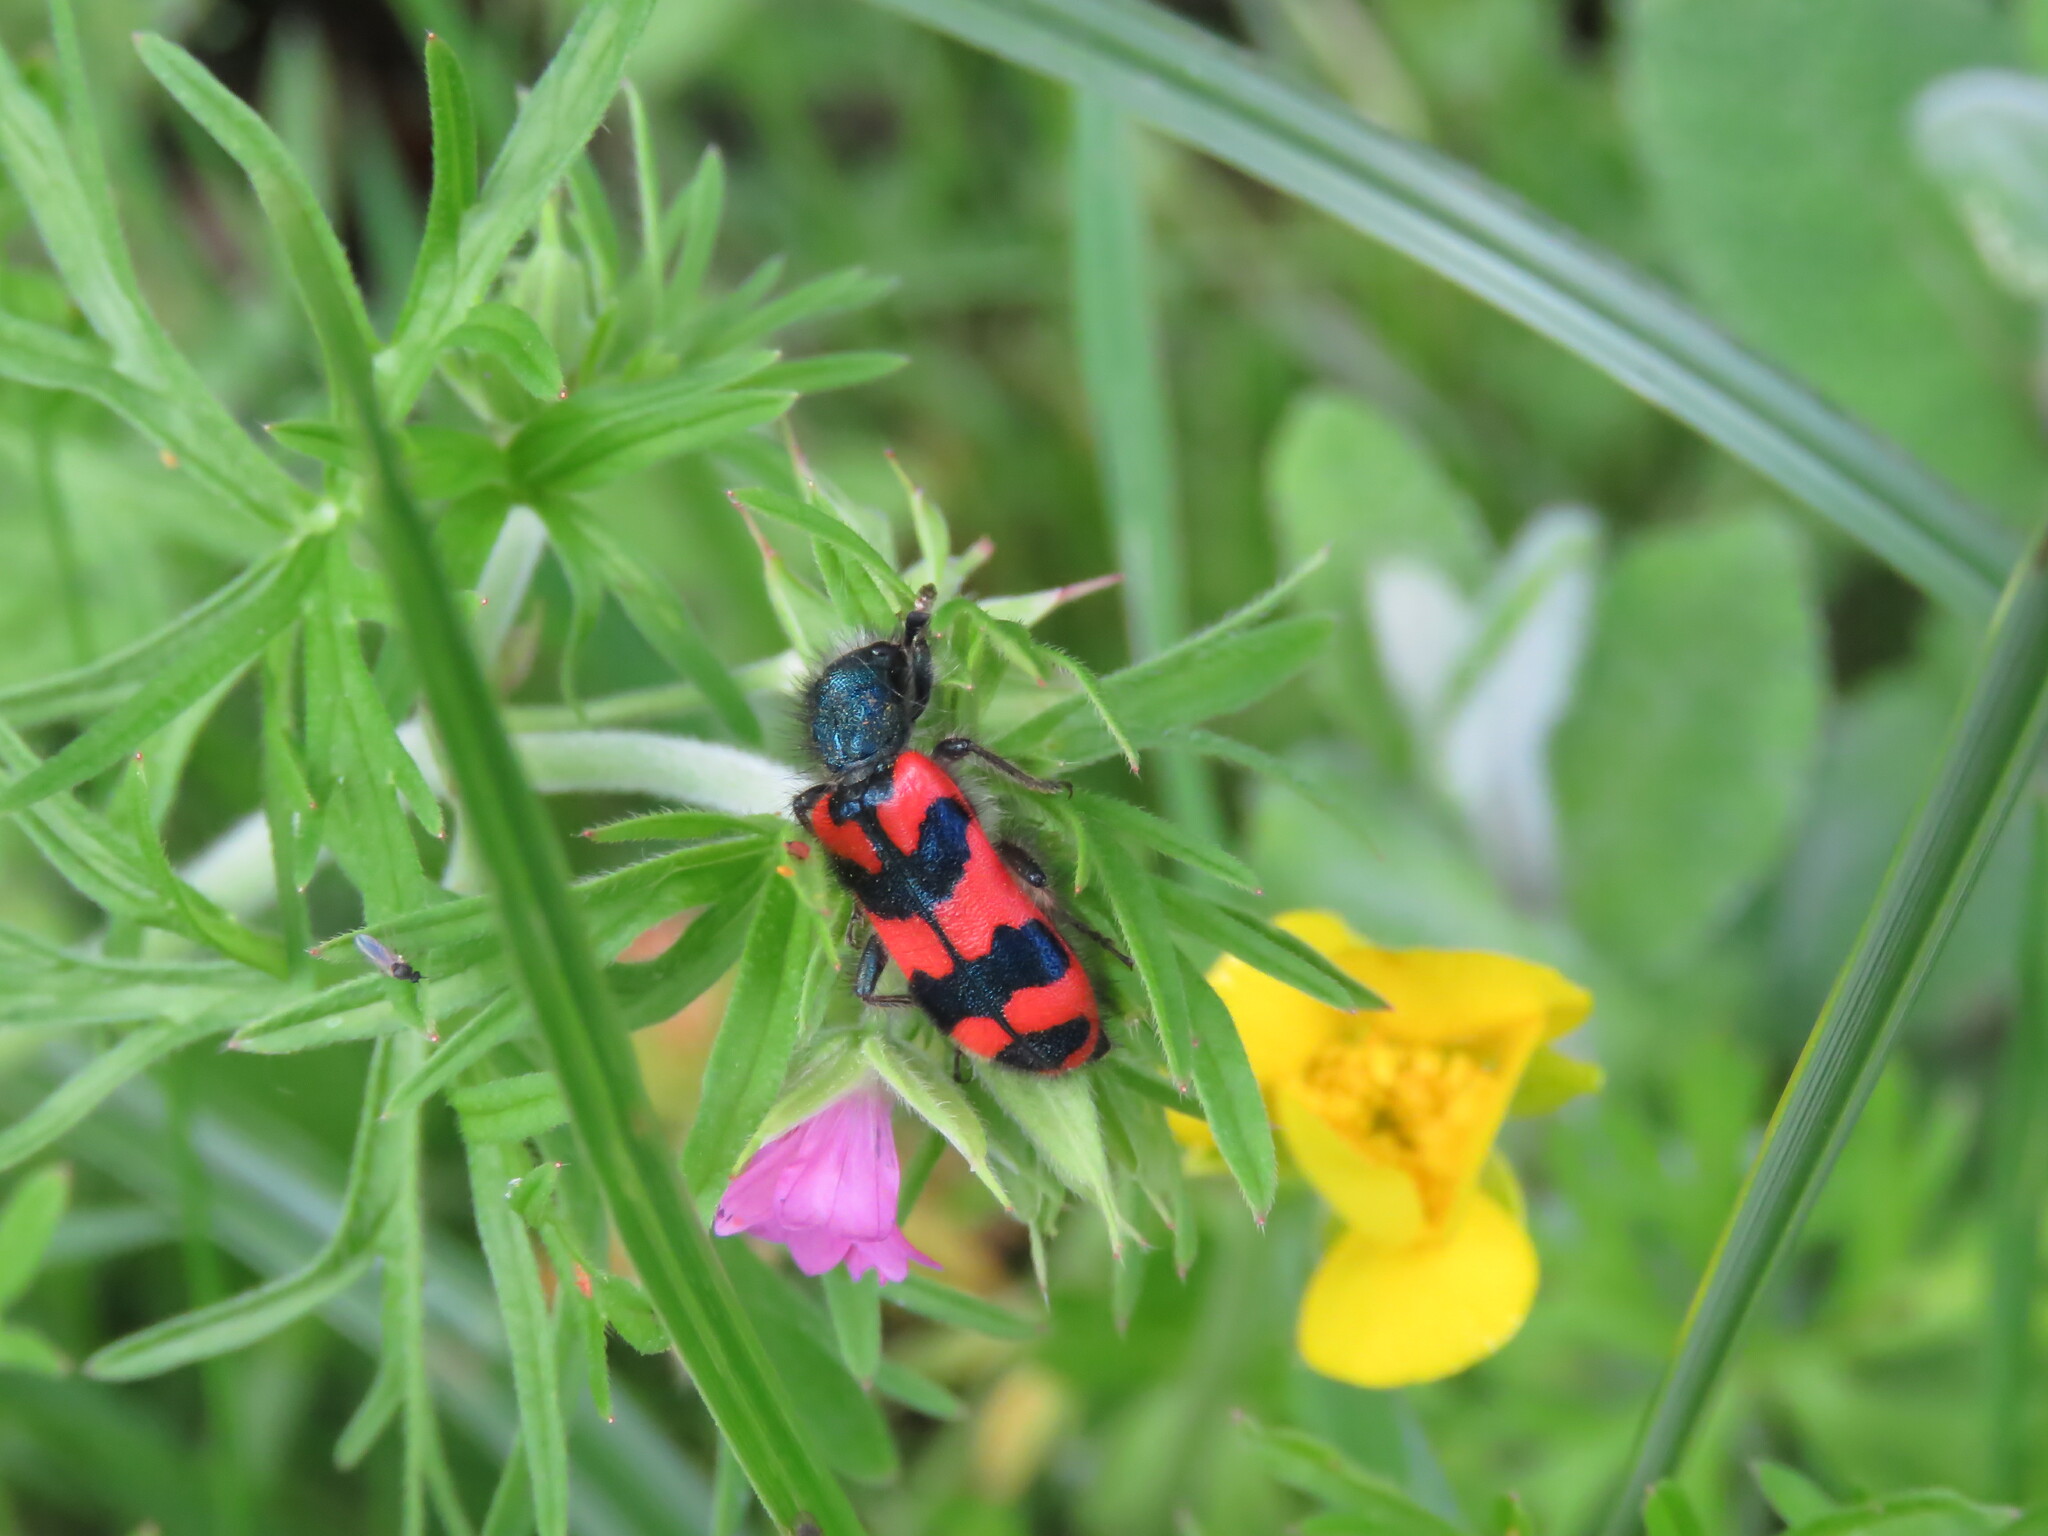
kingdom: Animalia
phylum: Arthropoda
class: Insecta
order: Coleoptera
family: Cleridae
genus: Trichodes
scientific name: Trichodes alvearius
